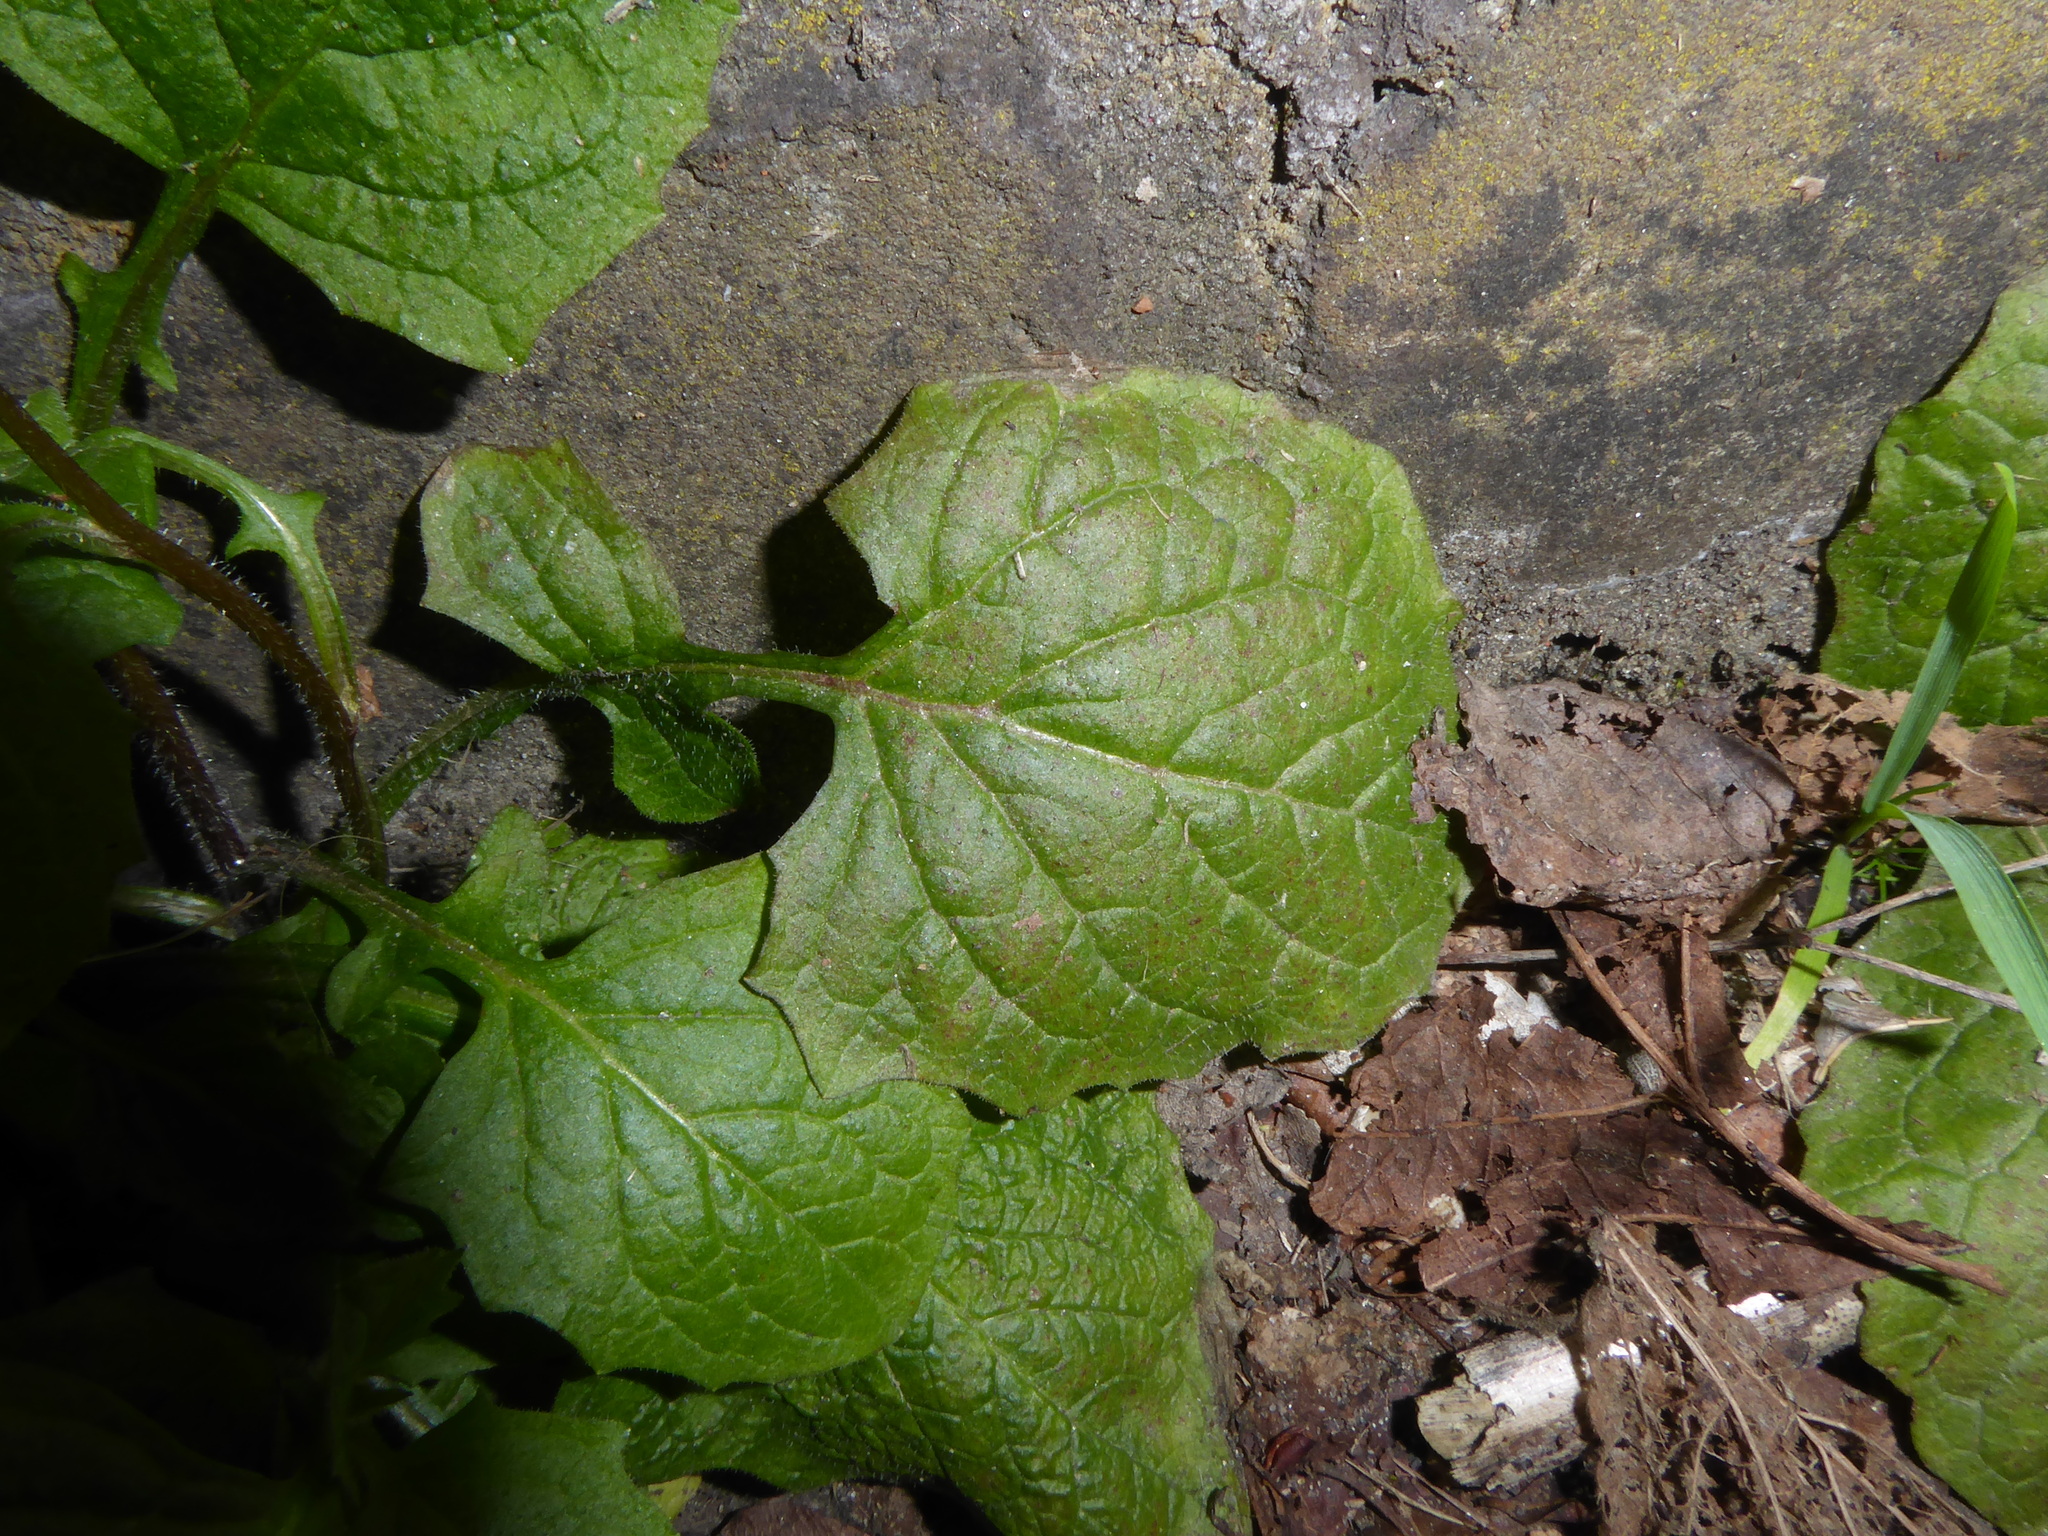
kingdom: Plantae
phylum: Tracheophyta
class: Magnoliopsida
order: Asterales
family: Asteraceae
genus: Lapsana
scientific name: Lapsana communis
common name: Nipplewort
